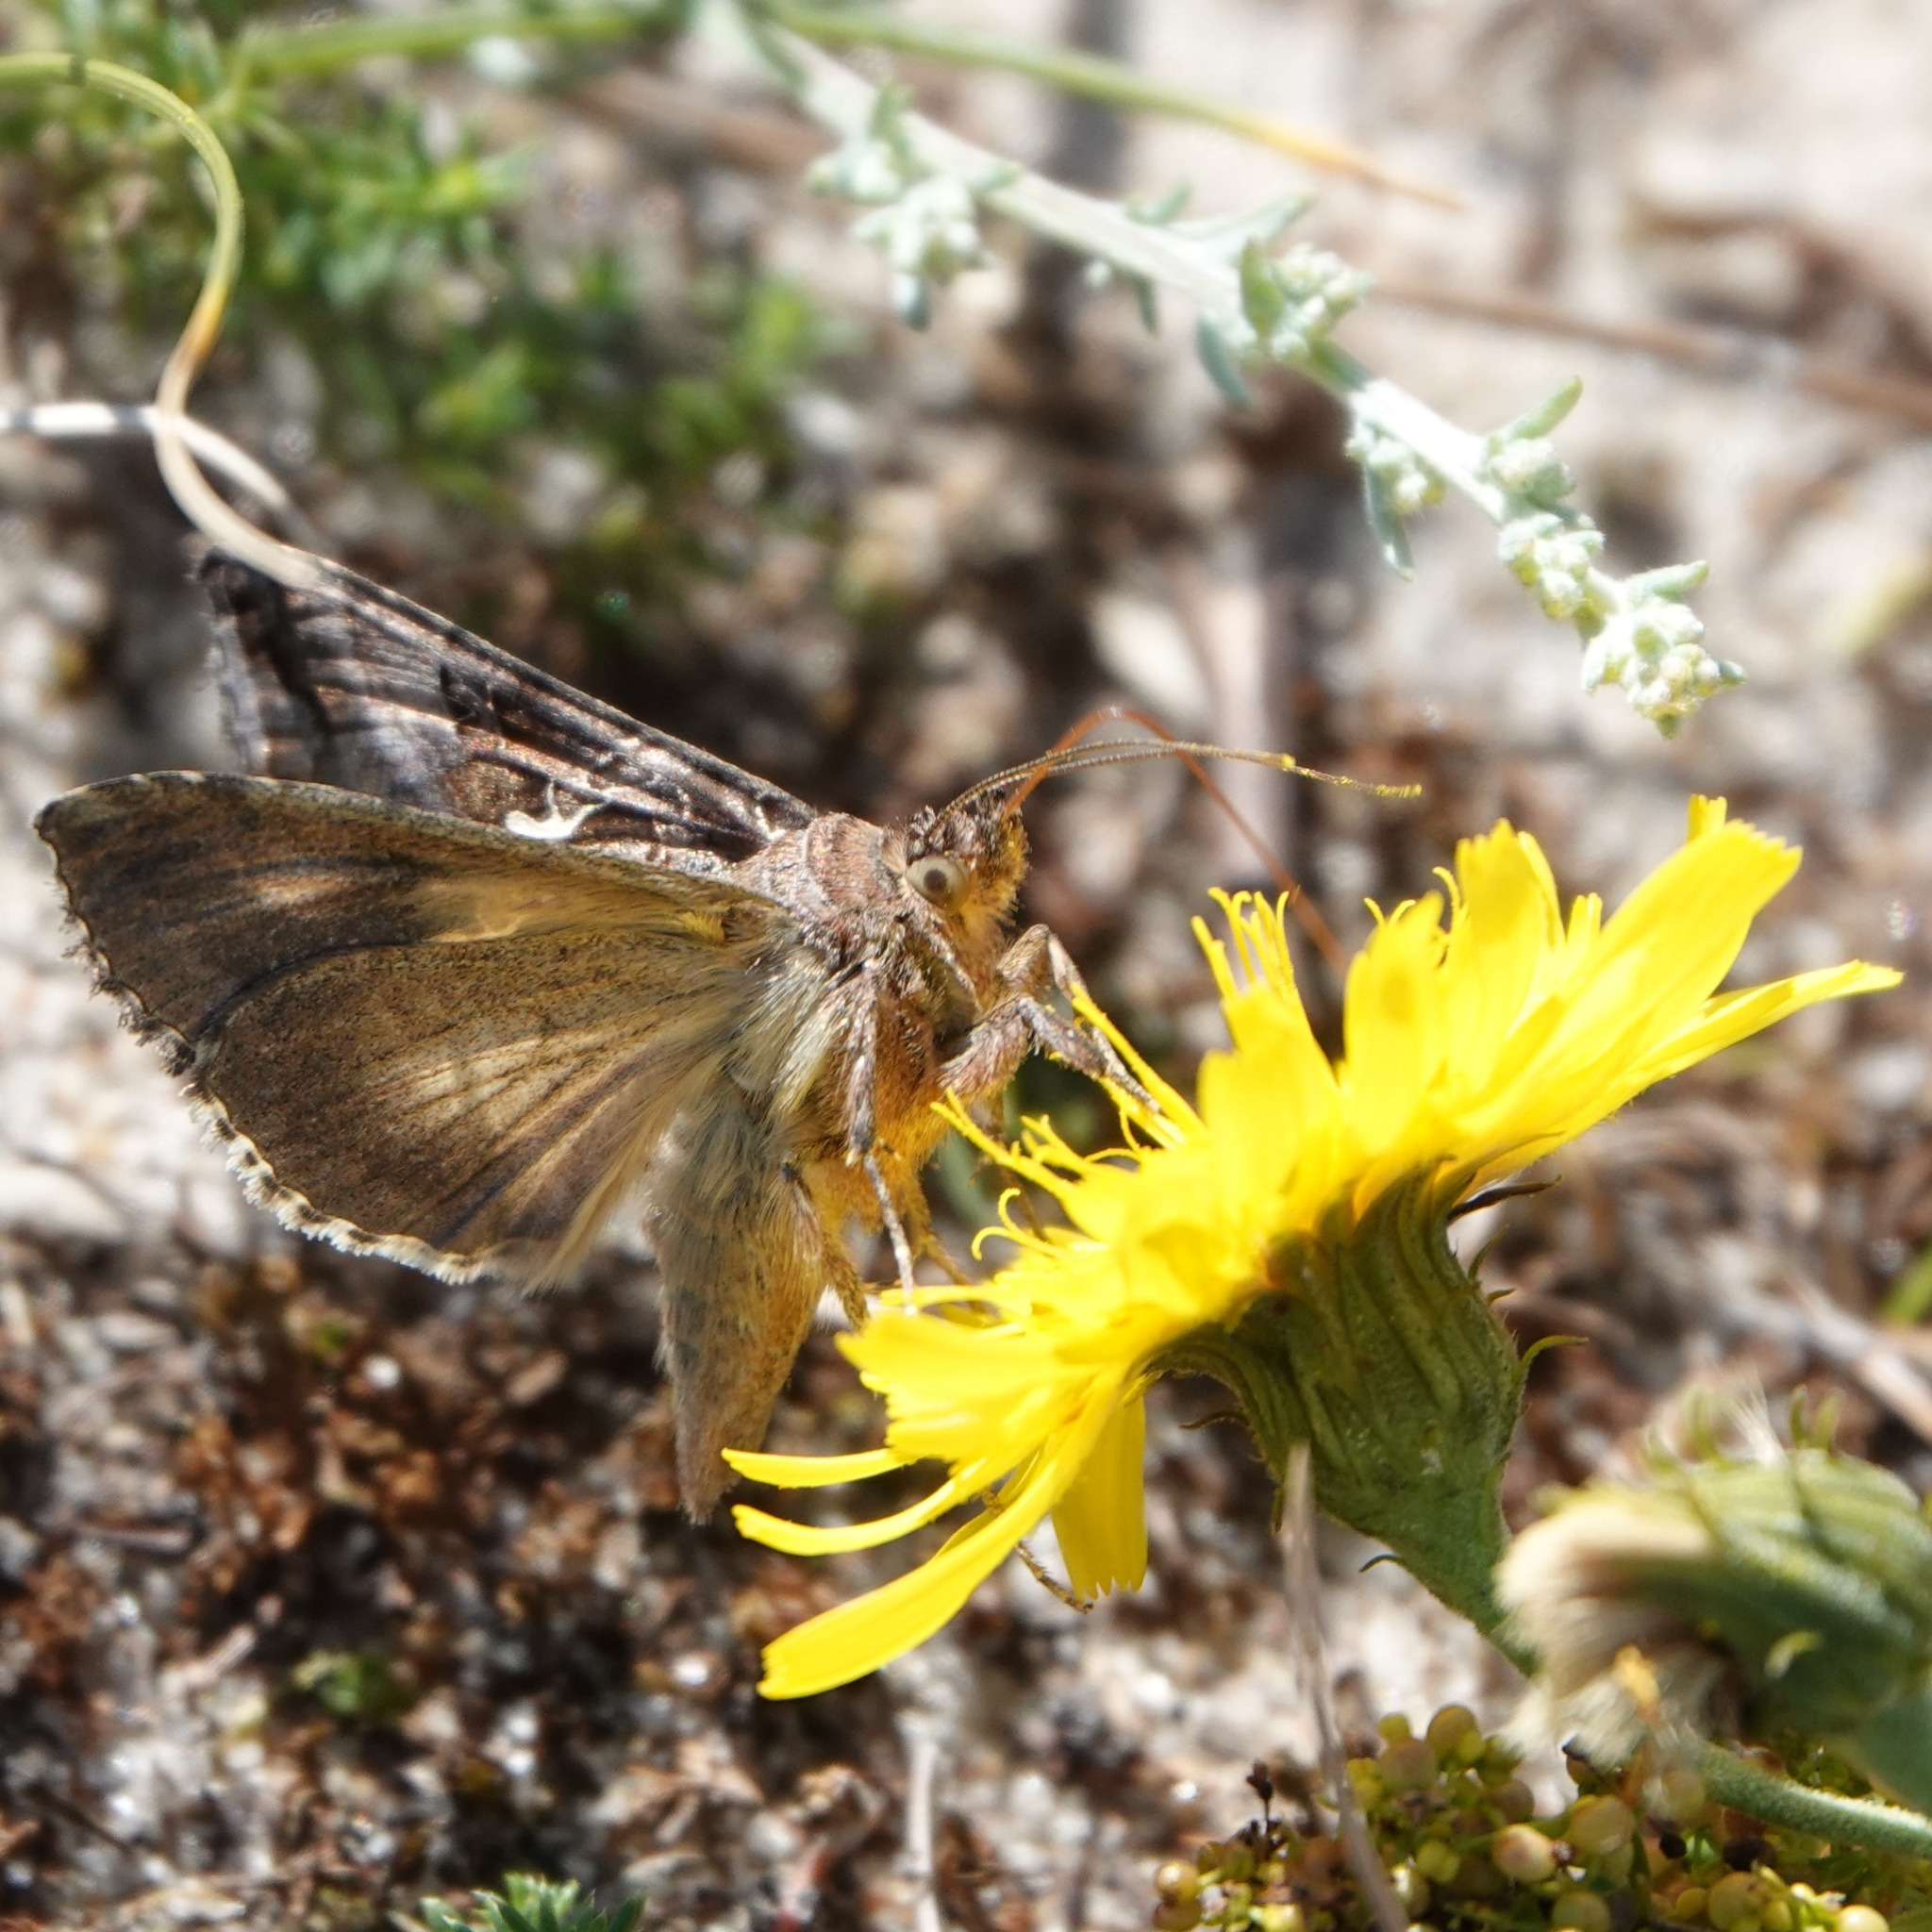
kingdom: Animalia
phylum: Arthropoda
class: Insecta
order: Lepidoptera
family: Noctuidae
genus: Autographa
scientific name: Autographa gamma
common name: Silver y
